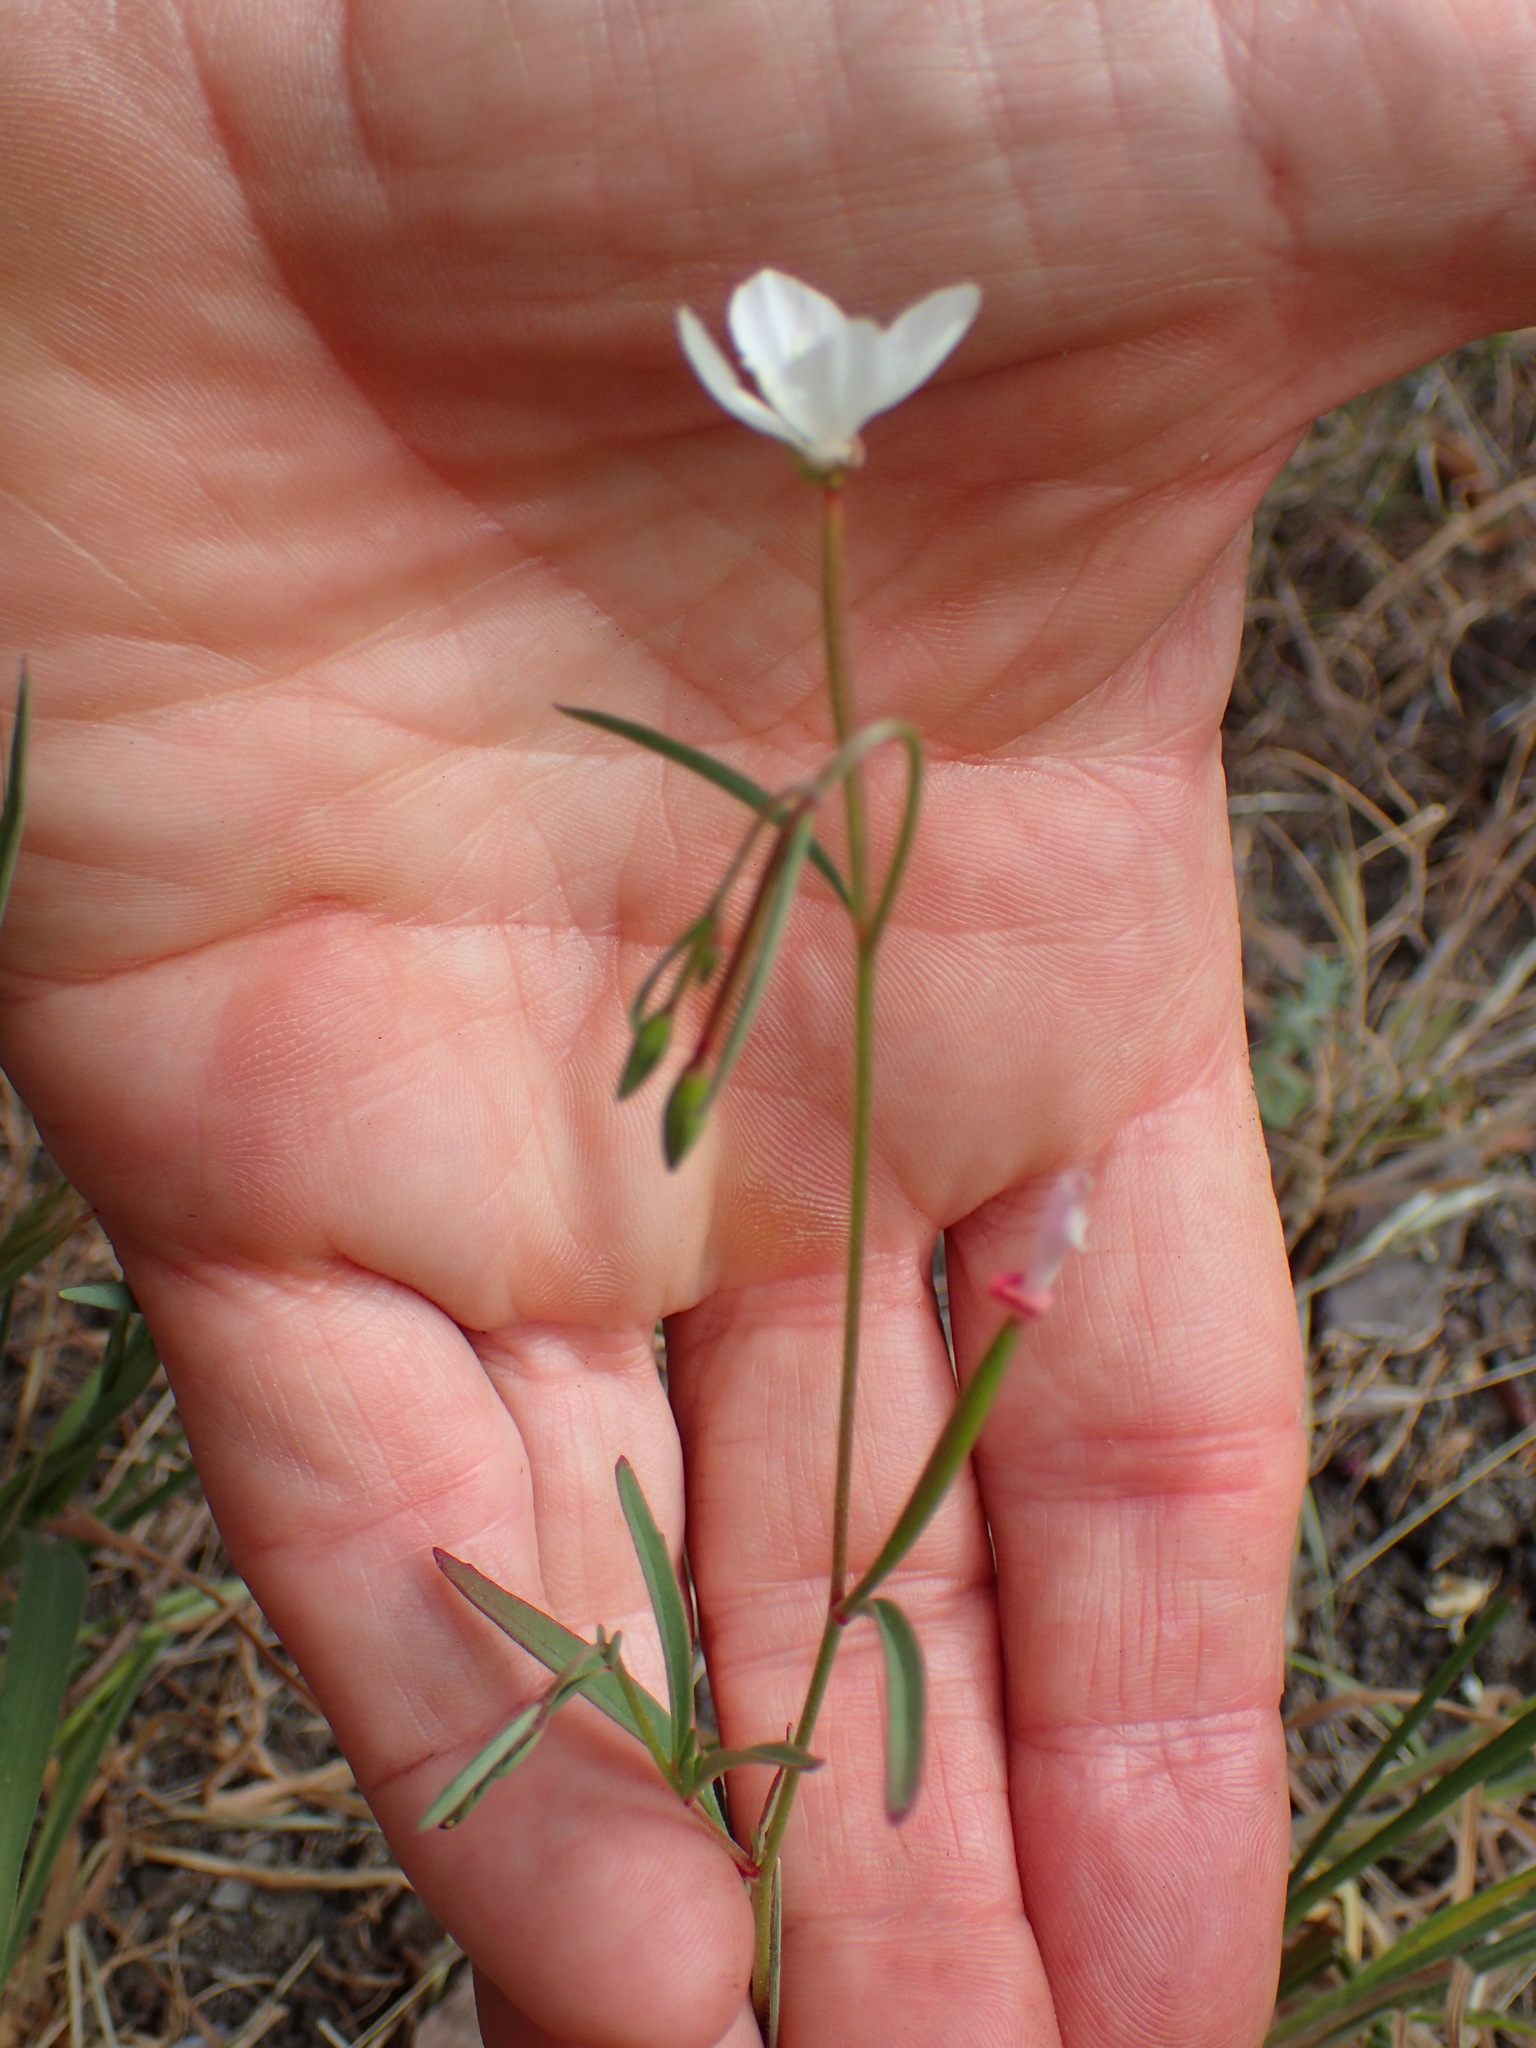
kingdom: Plantae
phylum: Tracheophyta
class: Magnoliopsida
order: Myrtales
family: Onagraceae
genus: Clarkia
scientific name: Clarkia epilobioides
